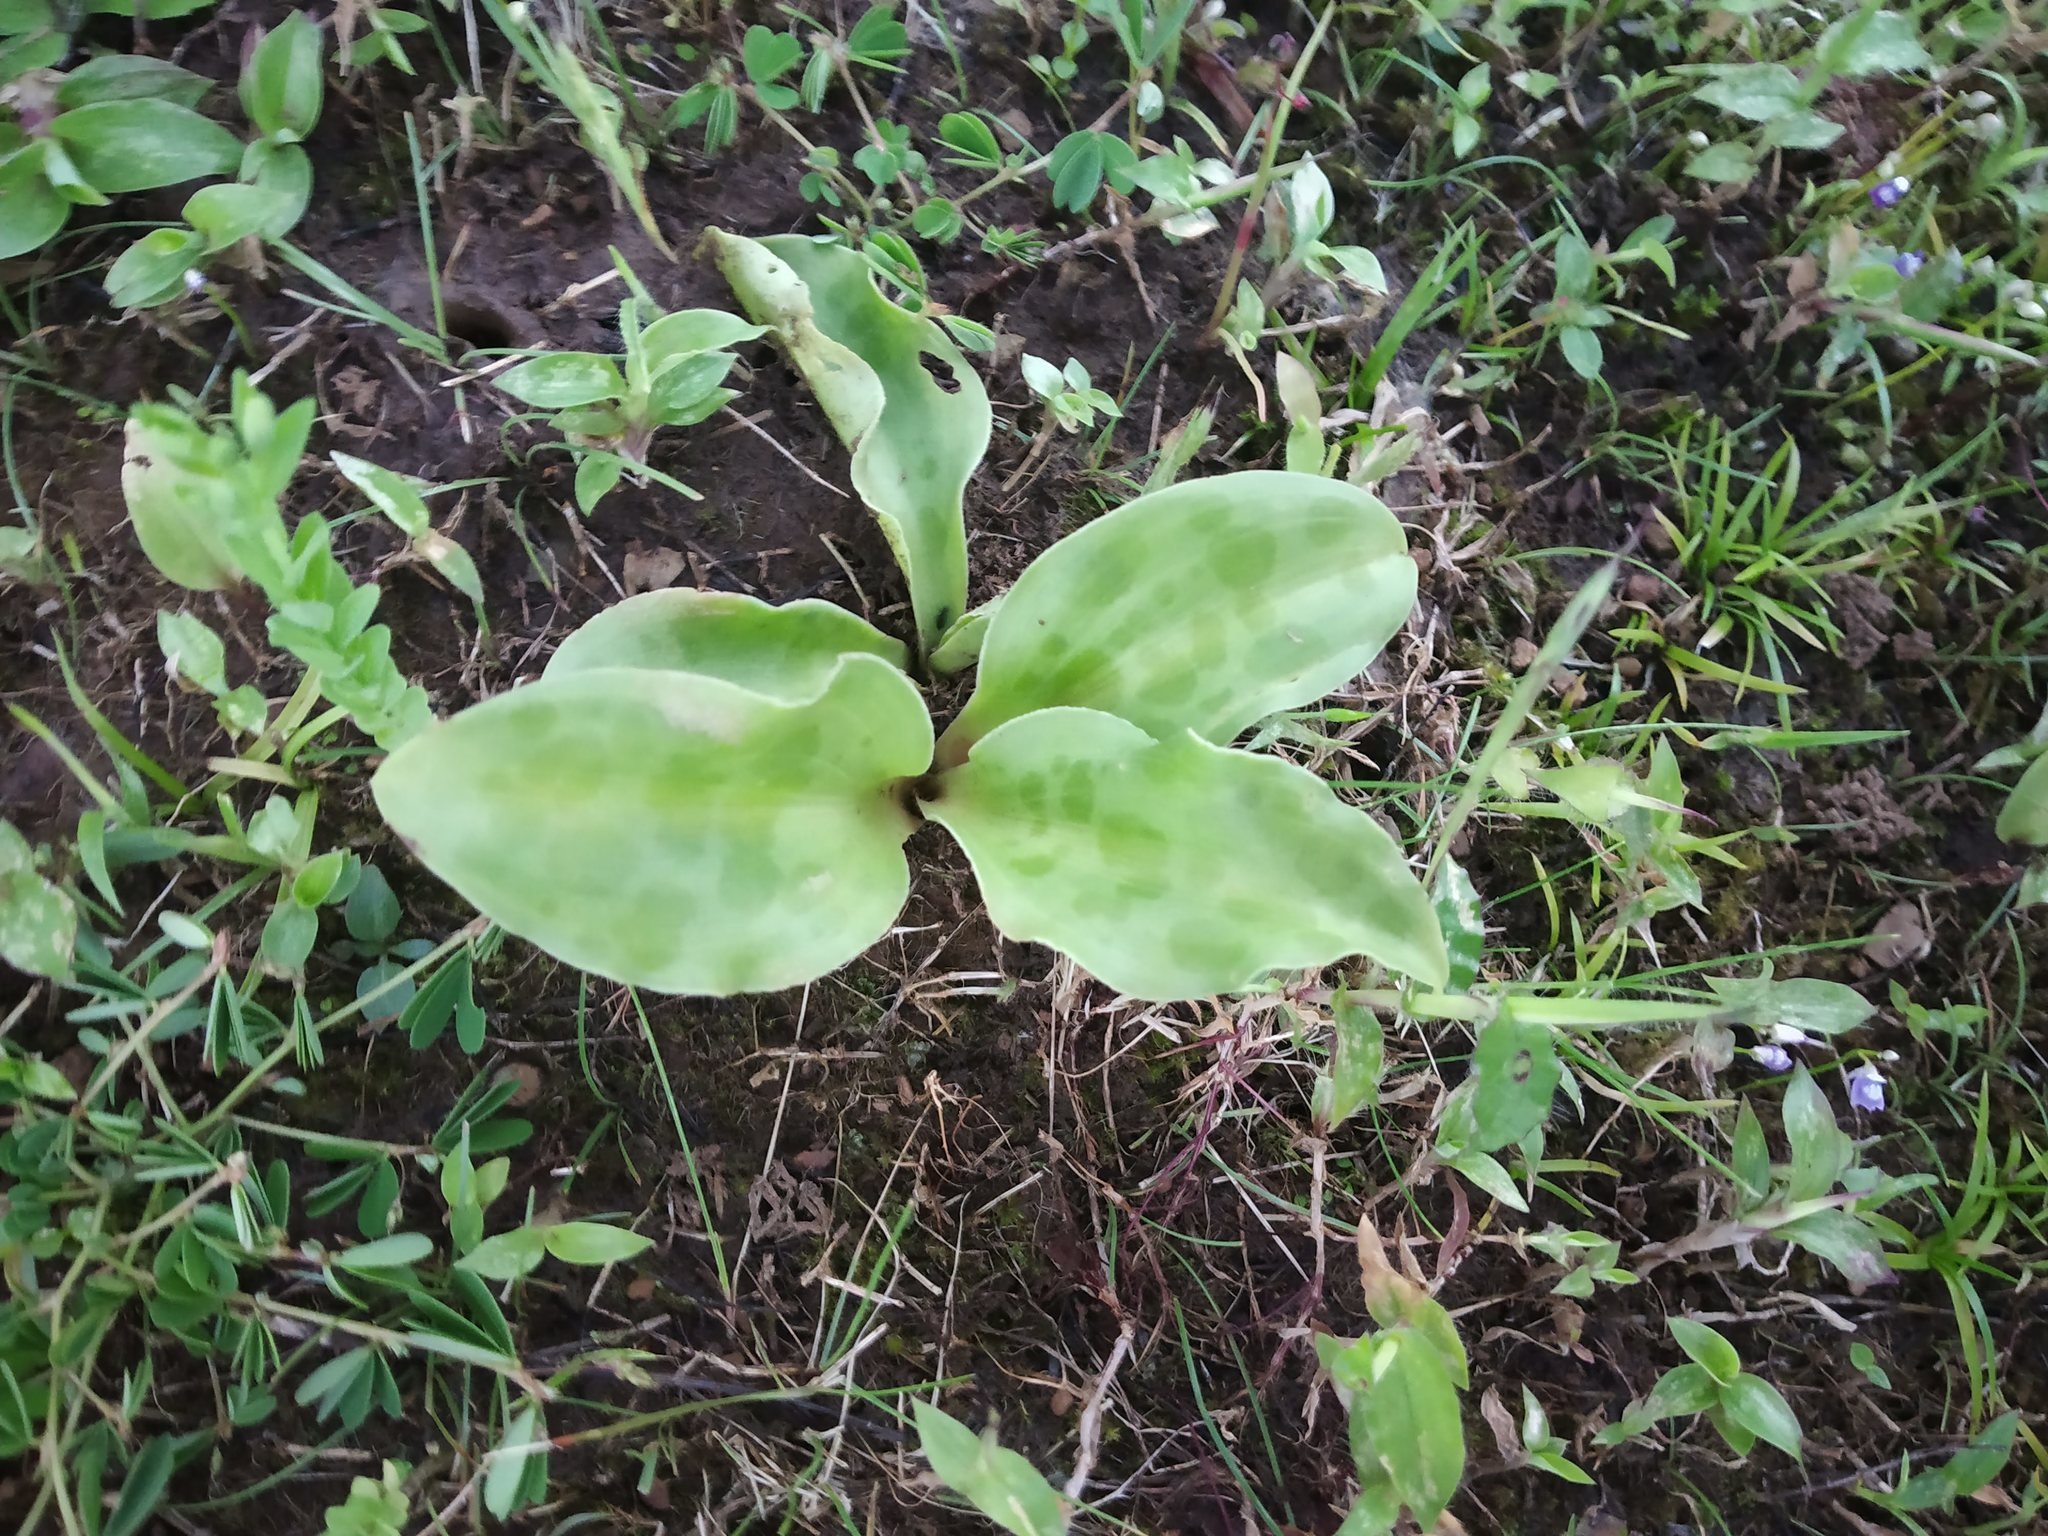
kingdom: Plantae
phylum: Tracheophyta
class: Liliopsida
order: Asparagales
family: Asparagaceae
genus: Ledebouria
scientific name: Ledebouria revoluta
